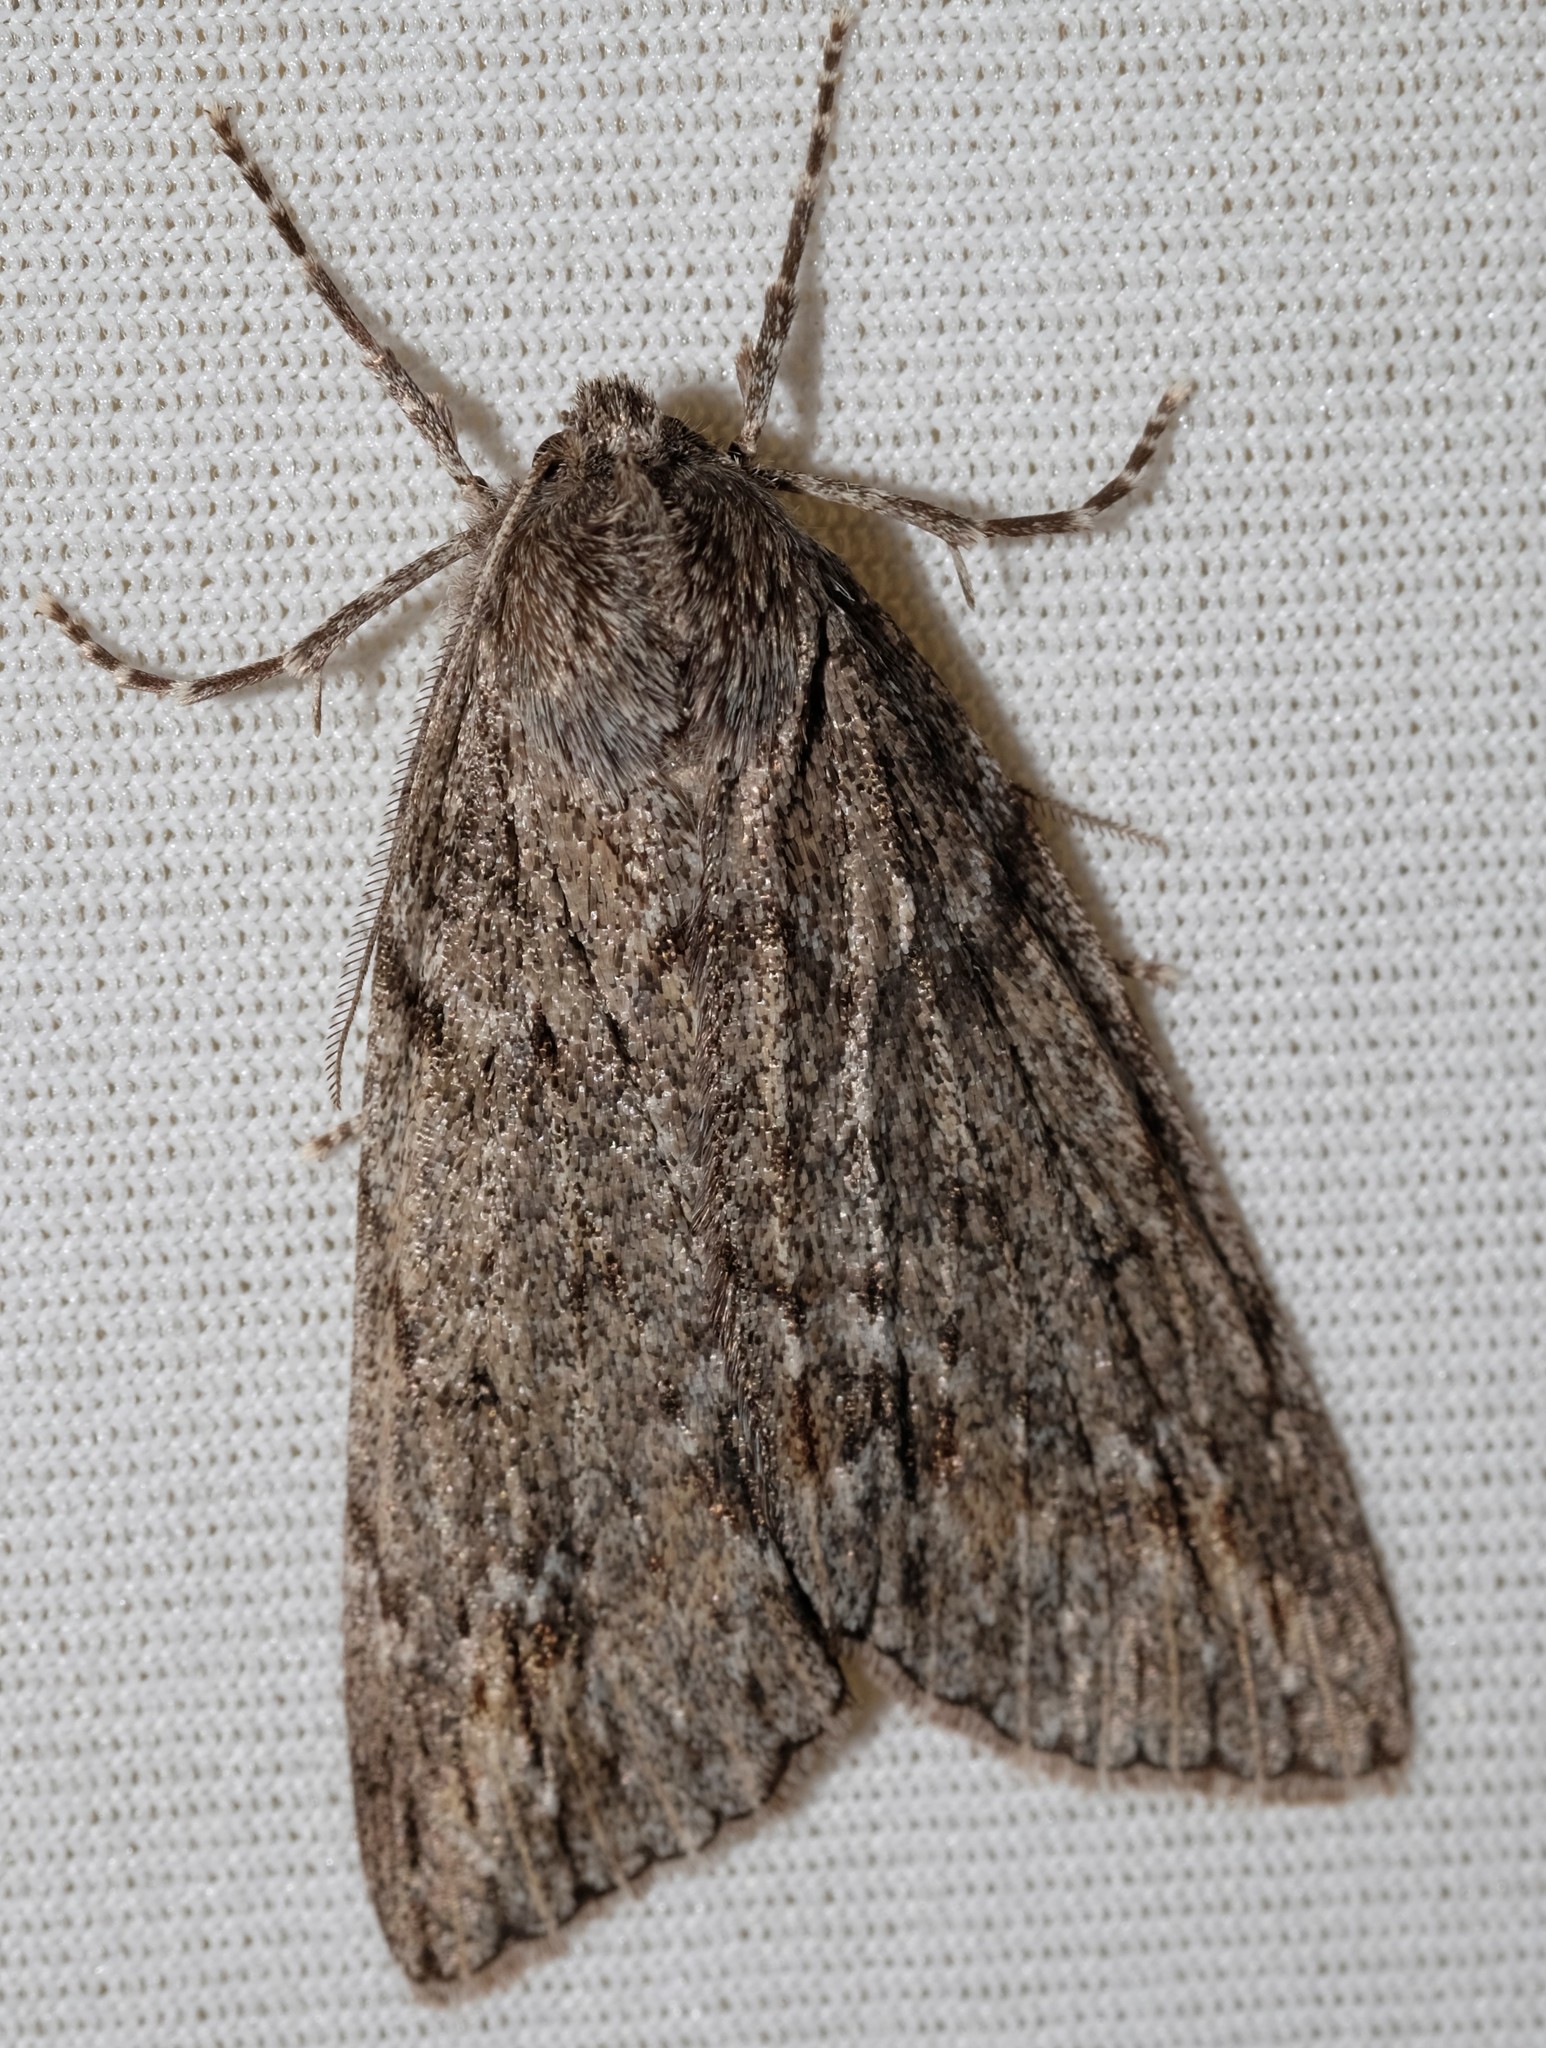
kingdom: Animalia
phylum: Arthropoda
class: Insecta
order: Lepidoptera
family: Geometridae
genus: Chlenias
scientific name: Chlenias banksiaria
